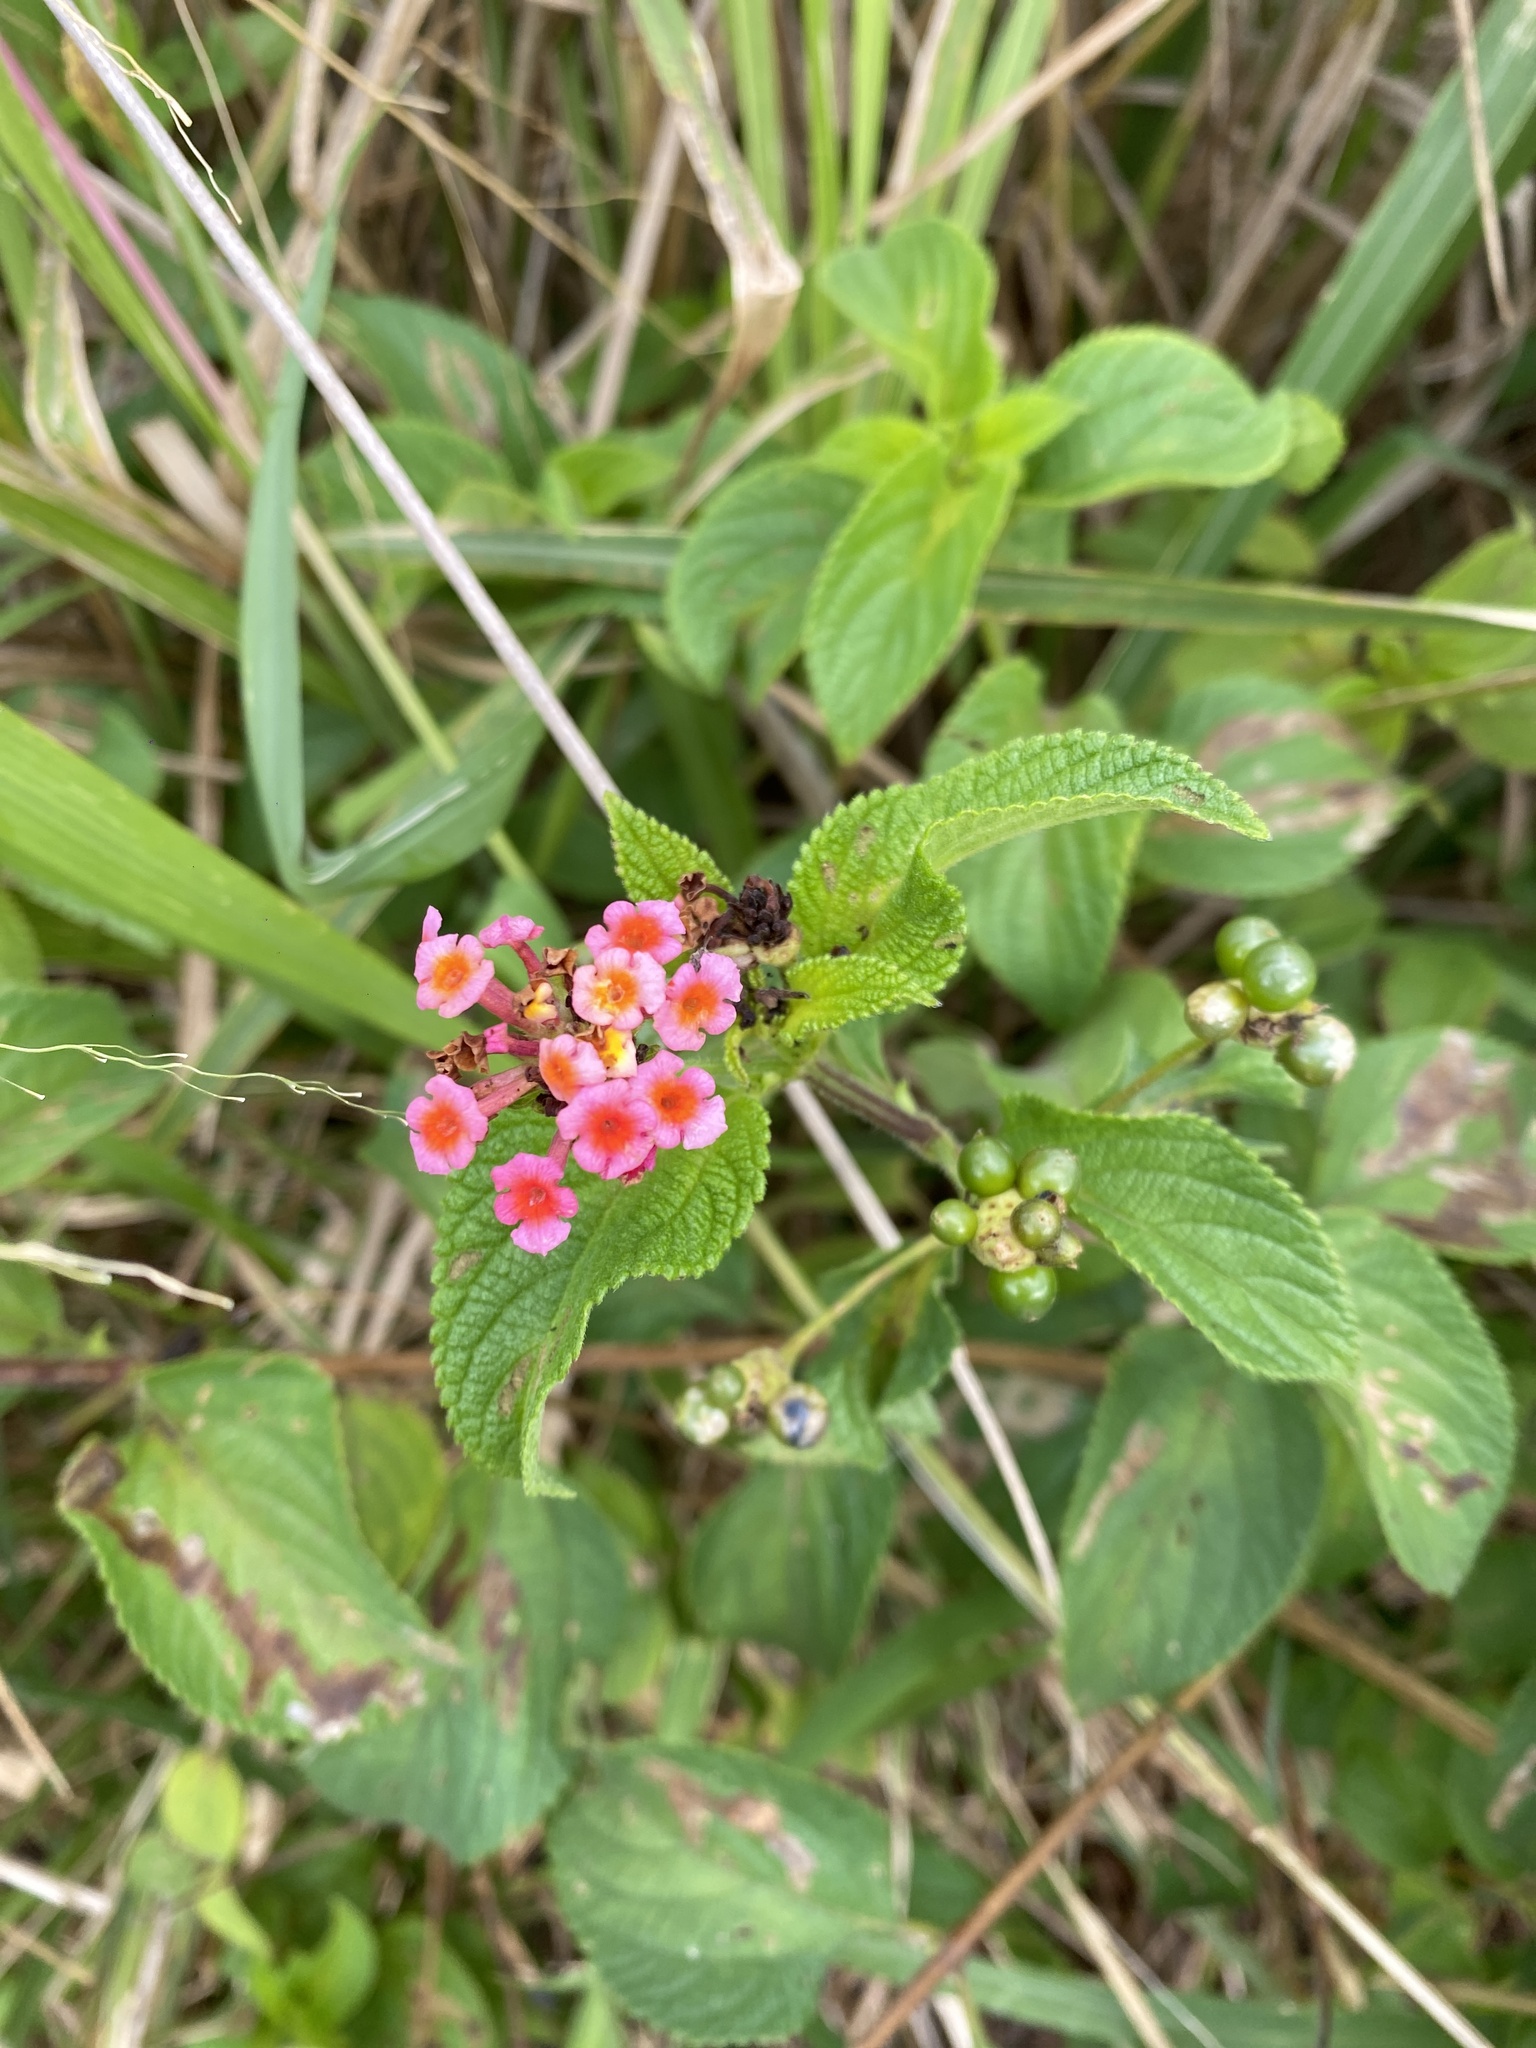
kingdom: Plantae
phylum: Tracheophyta
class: Magnoliopsida
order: Lamiales
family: Verbenaceae
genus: Lantana
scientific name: Lantana camara
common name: Lantana
